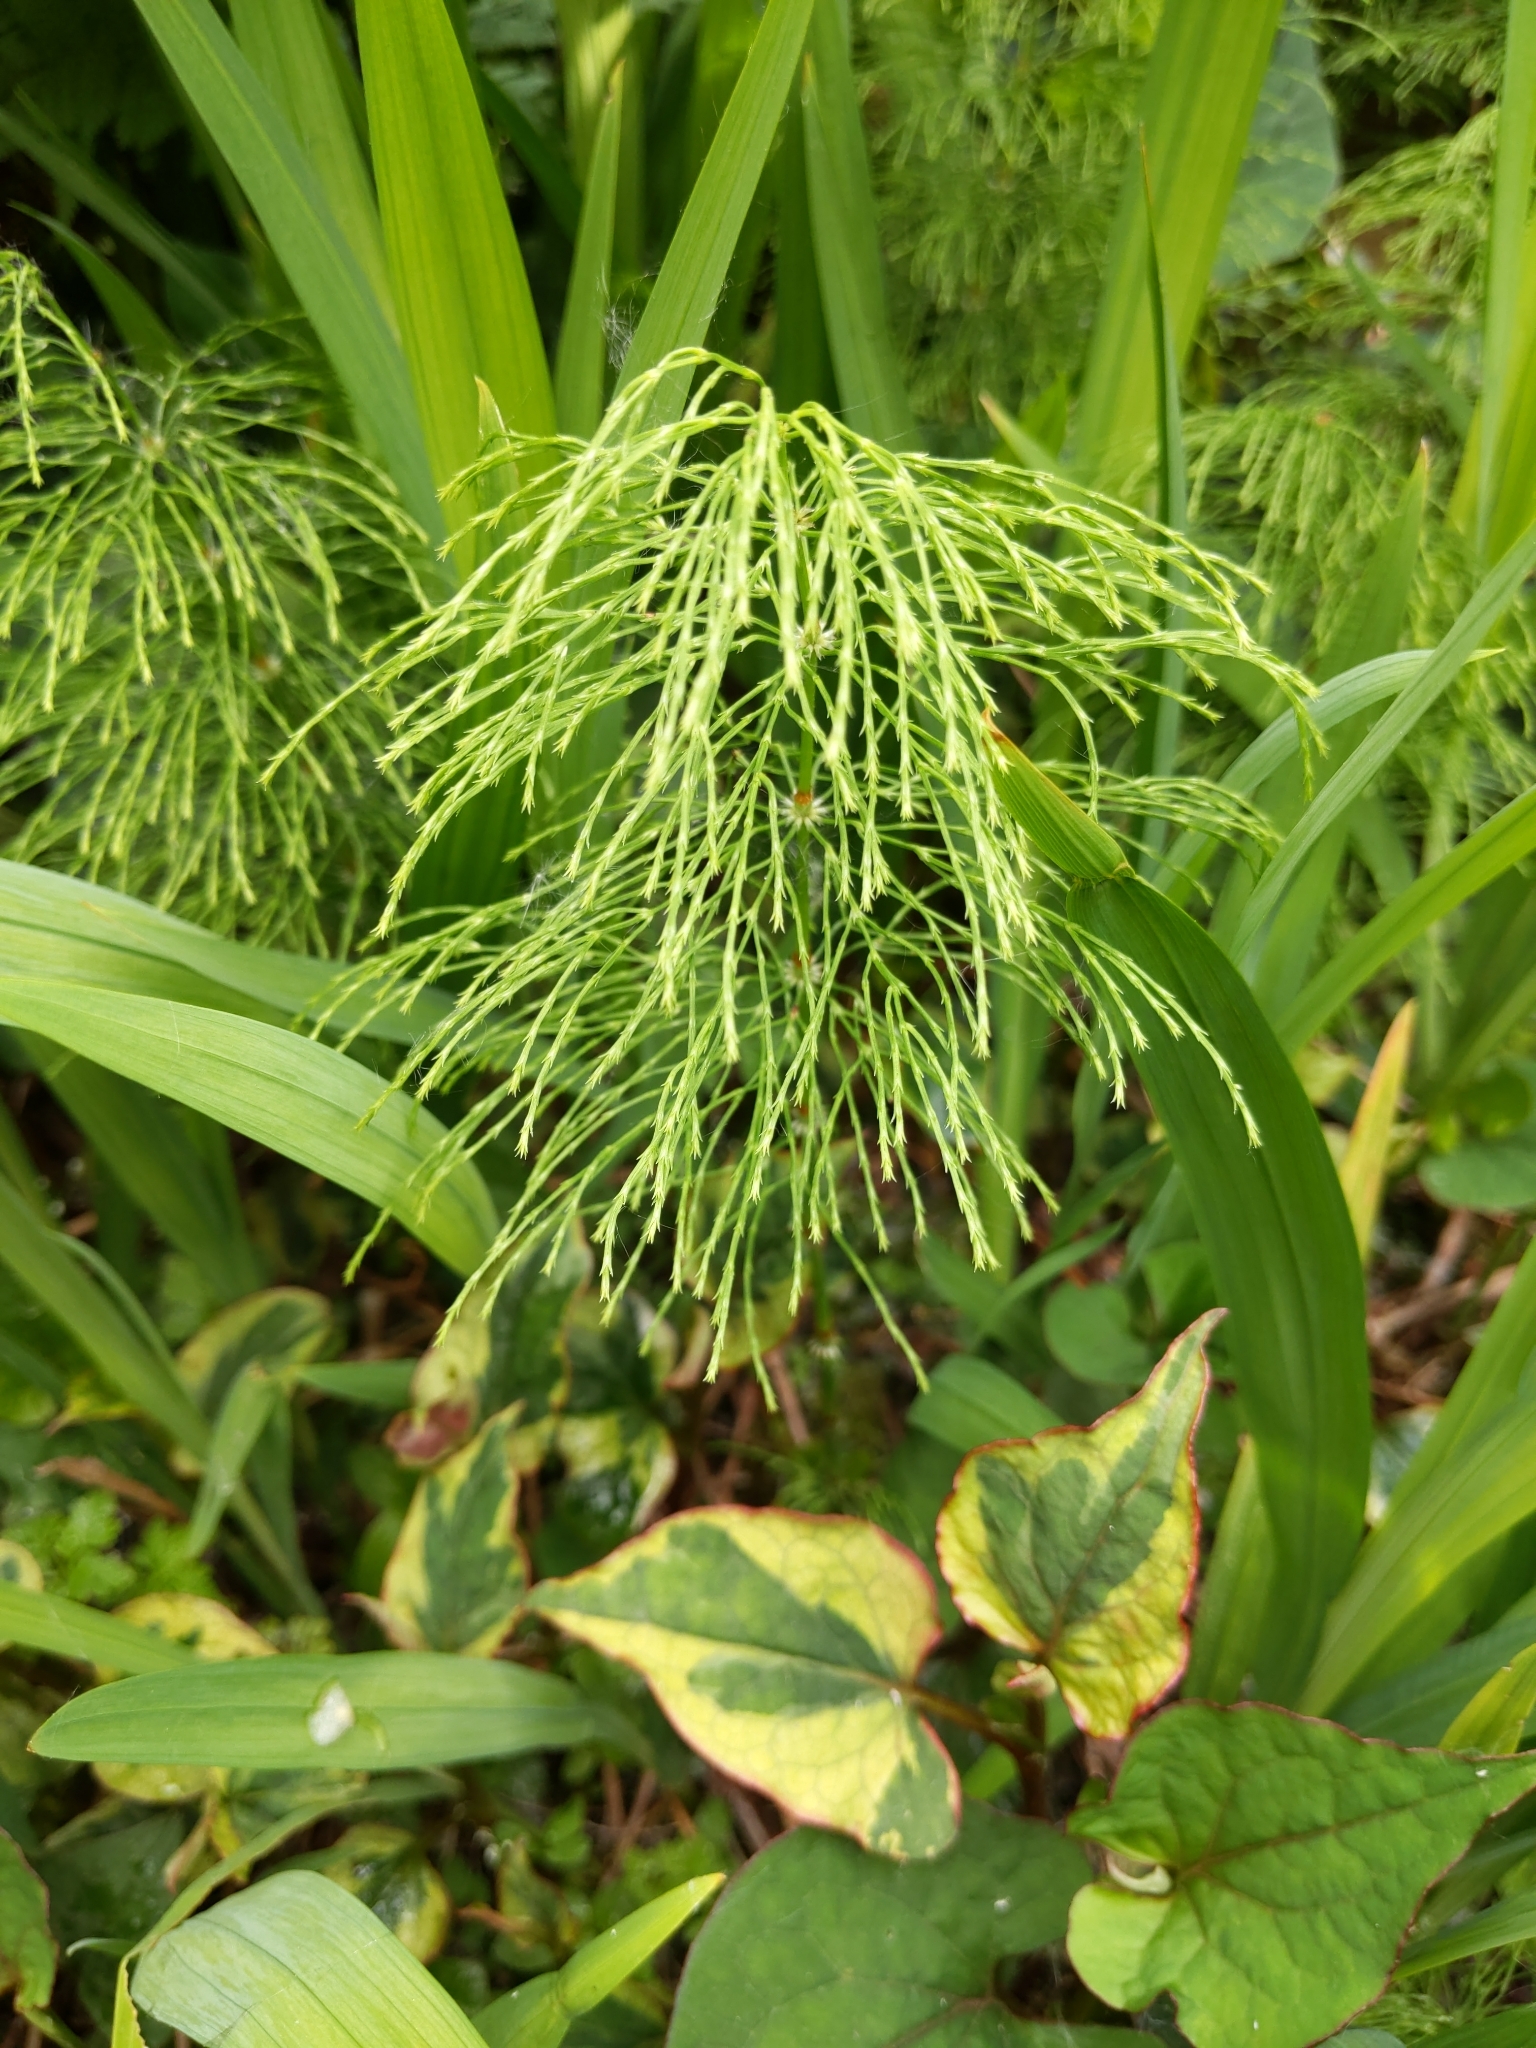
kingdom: Plantae
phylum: Tracheophyta
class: Polypodiopsida
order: Equisetales
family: Equisetaceae
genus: Equisetum
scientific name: Equisetum sylvaticum
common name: Wood horsetail
